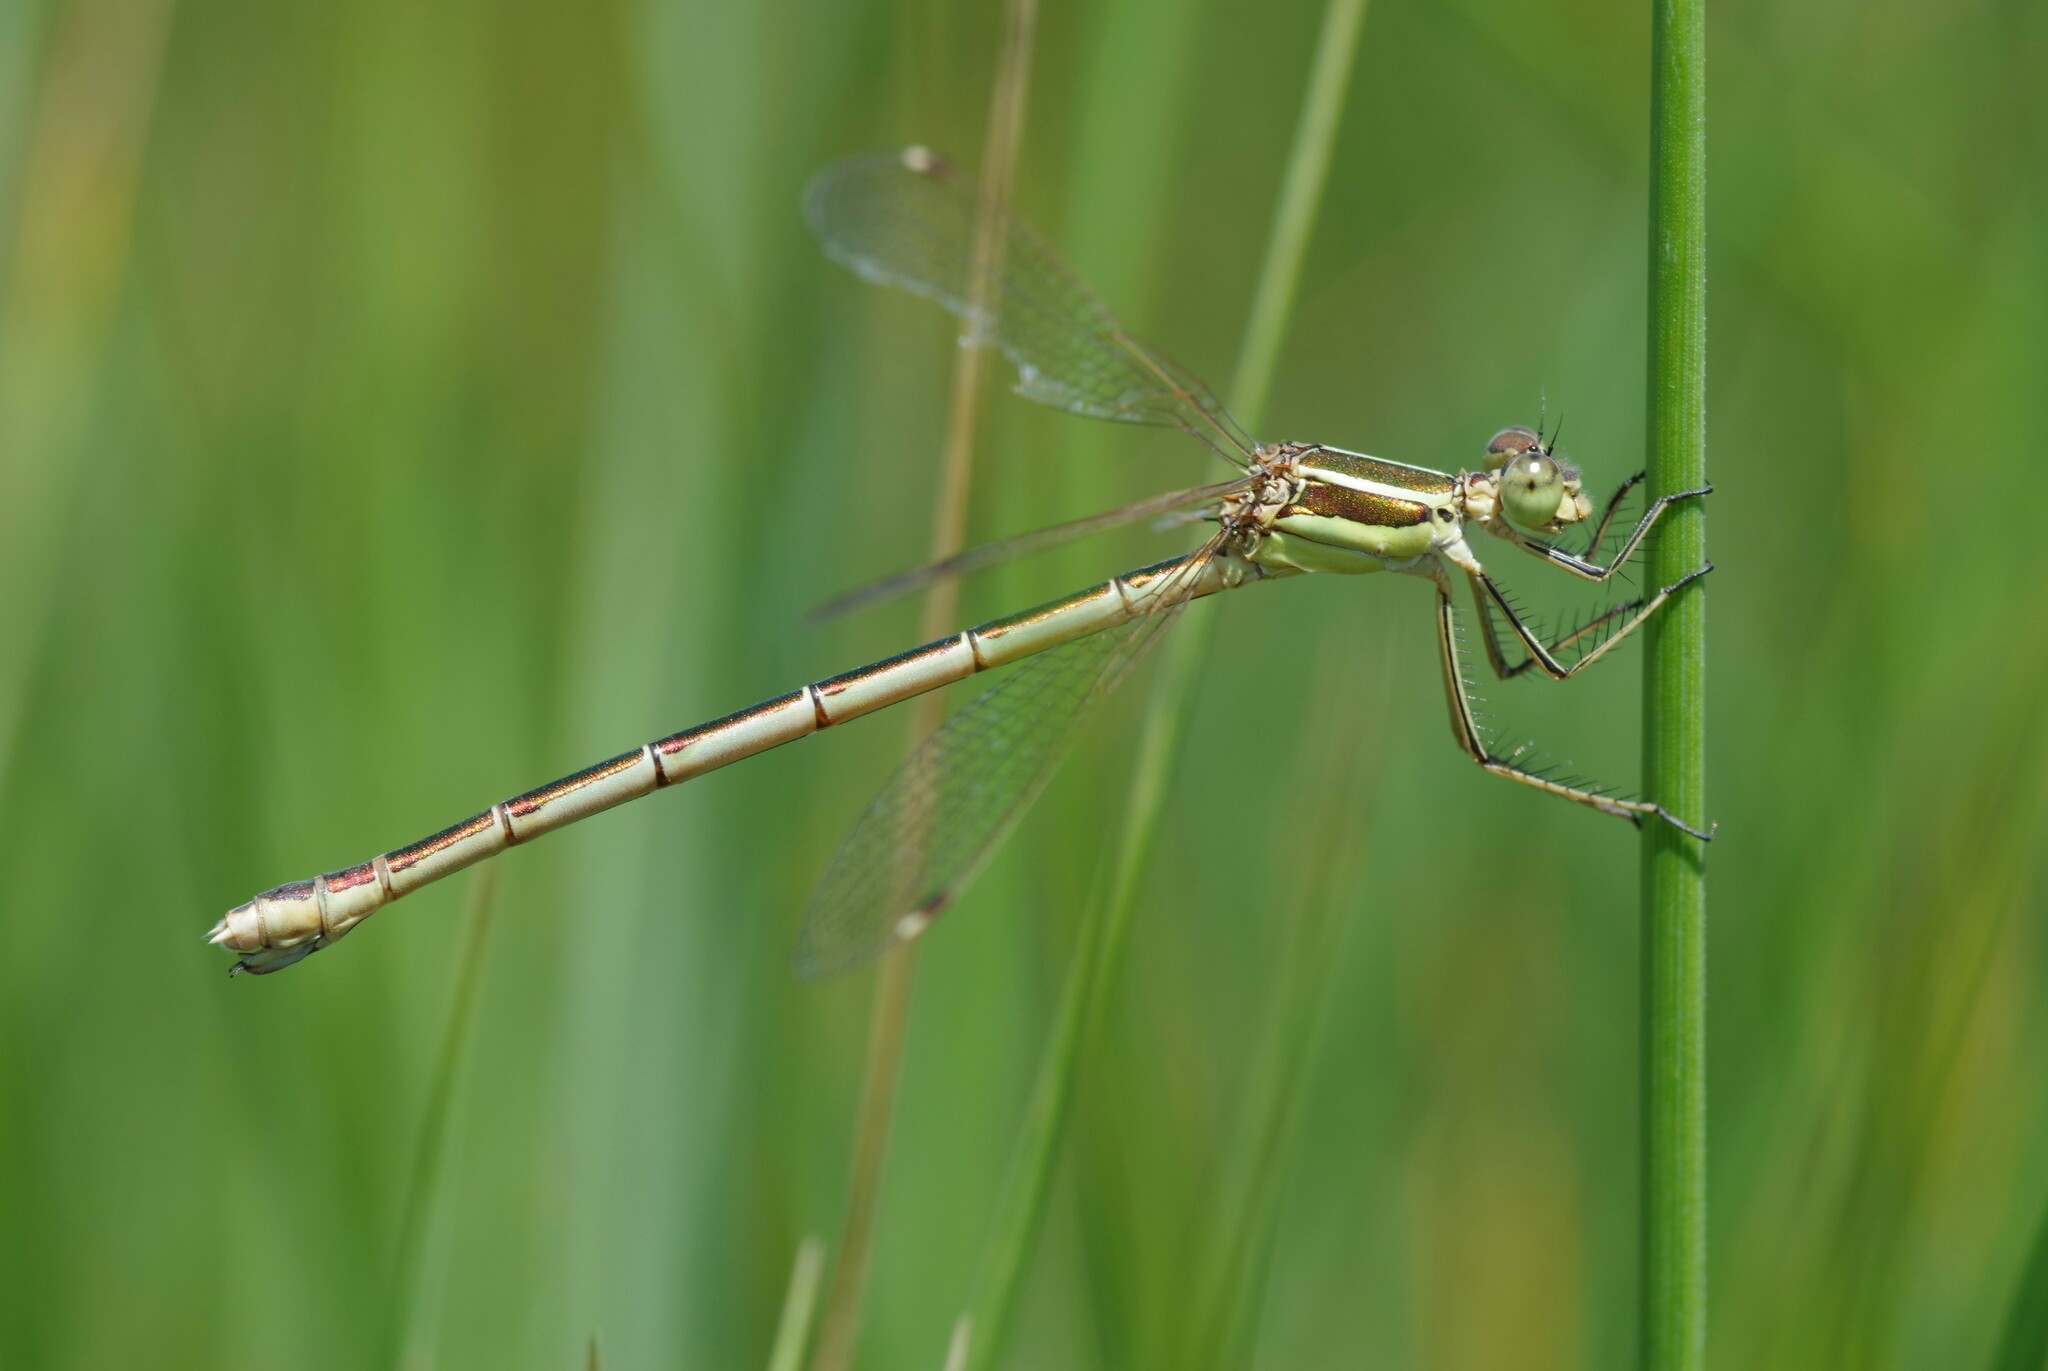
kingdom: Animalia
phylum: Arthropoda
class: Insecta
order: Odonata
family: Lestidae
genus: Lestes
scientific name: Lestes barbarus
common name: Migrant spreadwing
